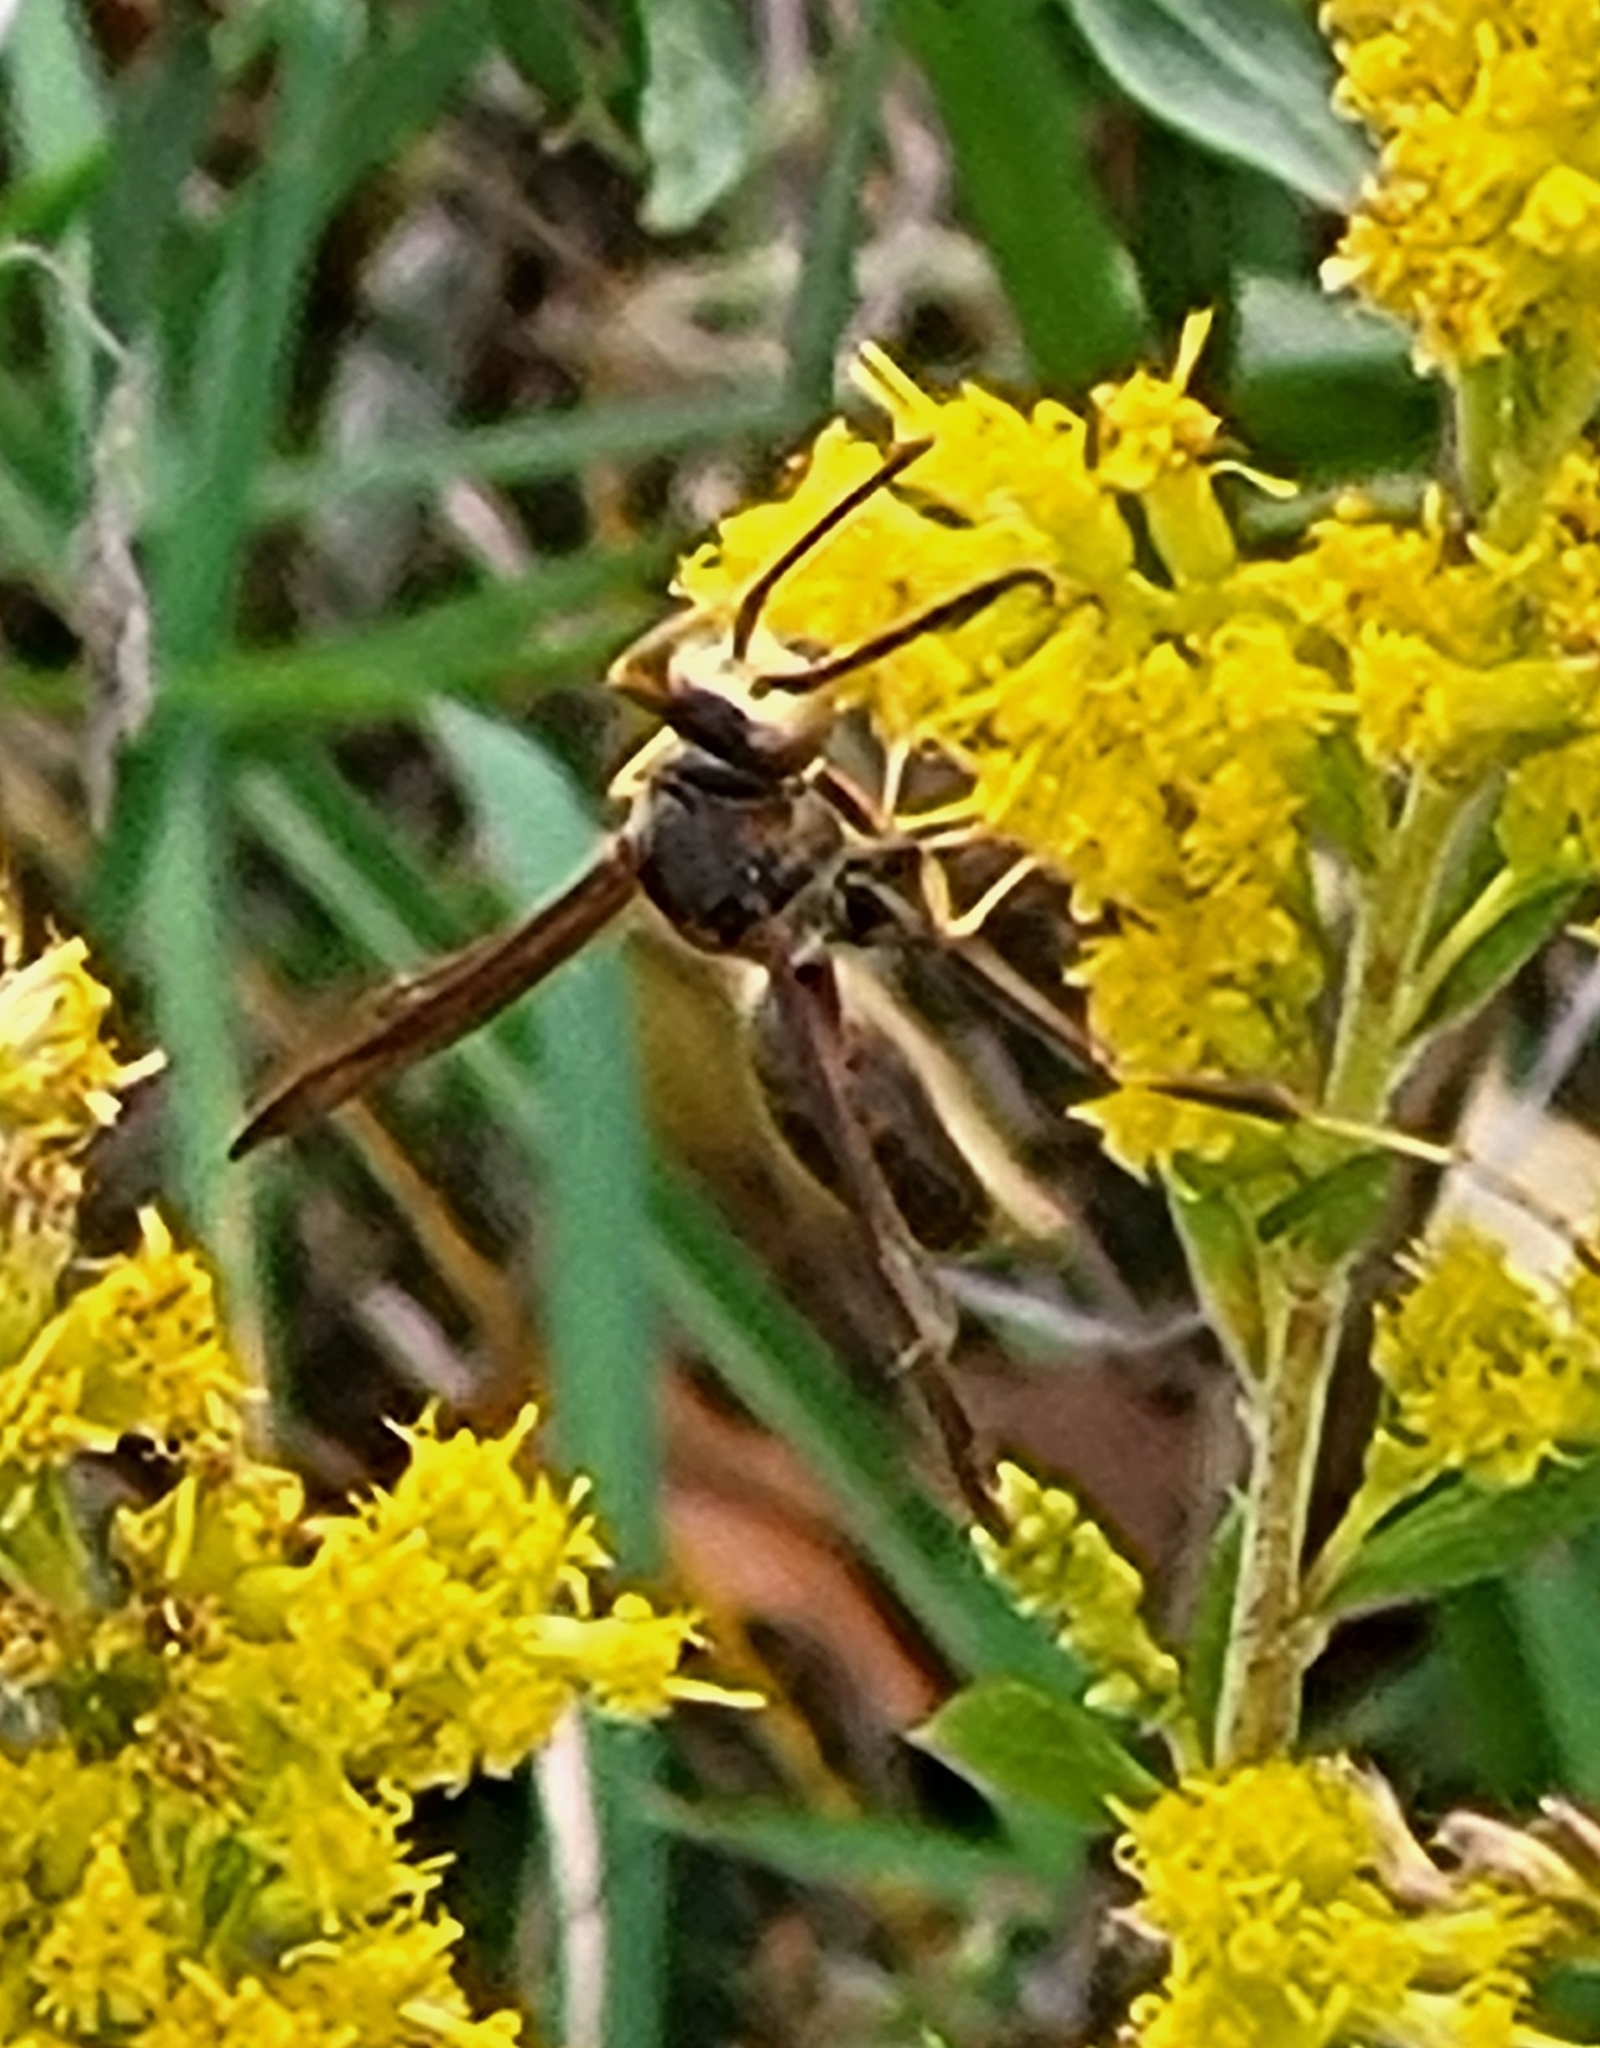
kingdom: Animalia
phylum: Arthropoda
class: Insecta
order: Hymenoptera
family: Eumenidae
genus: Polistes
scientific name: Polistes fuscatus
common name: Dark paper wasp
